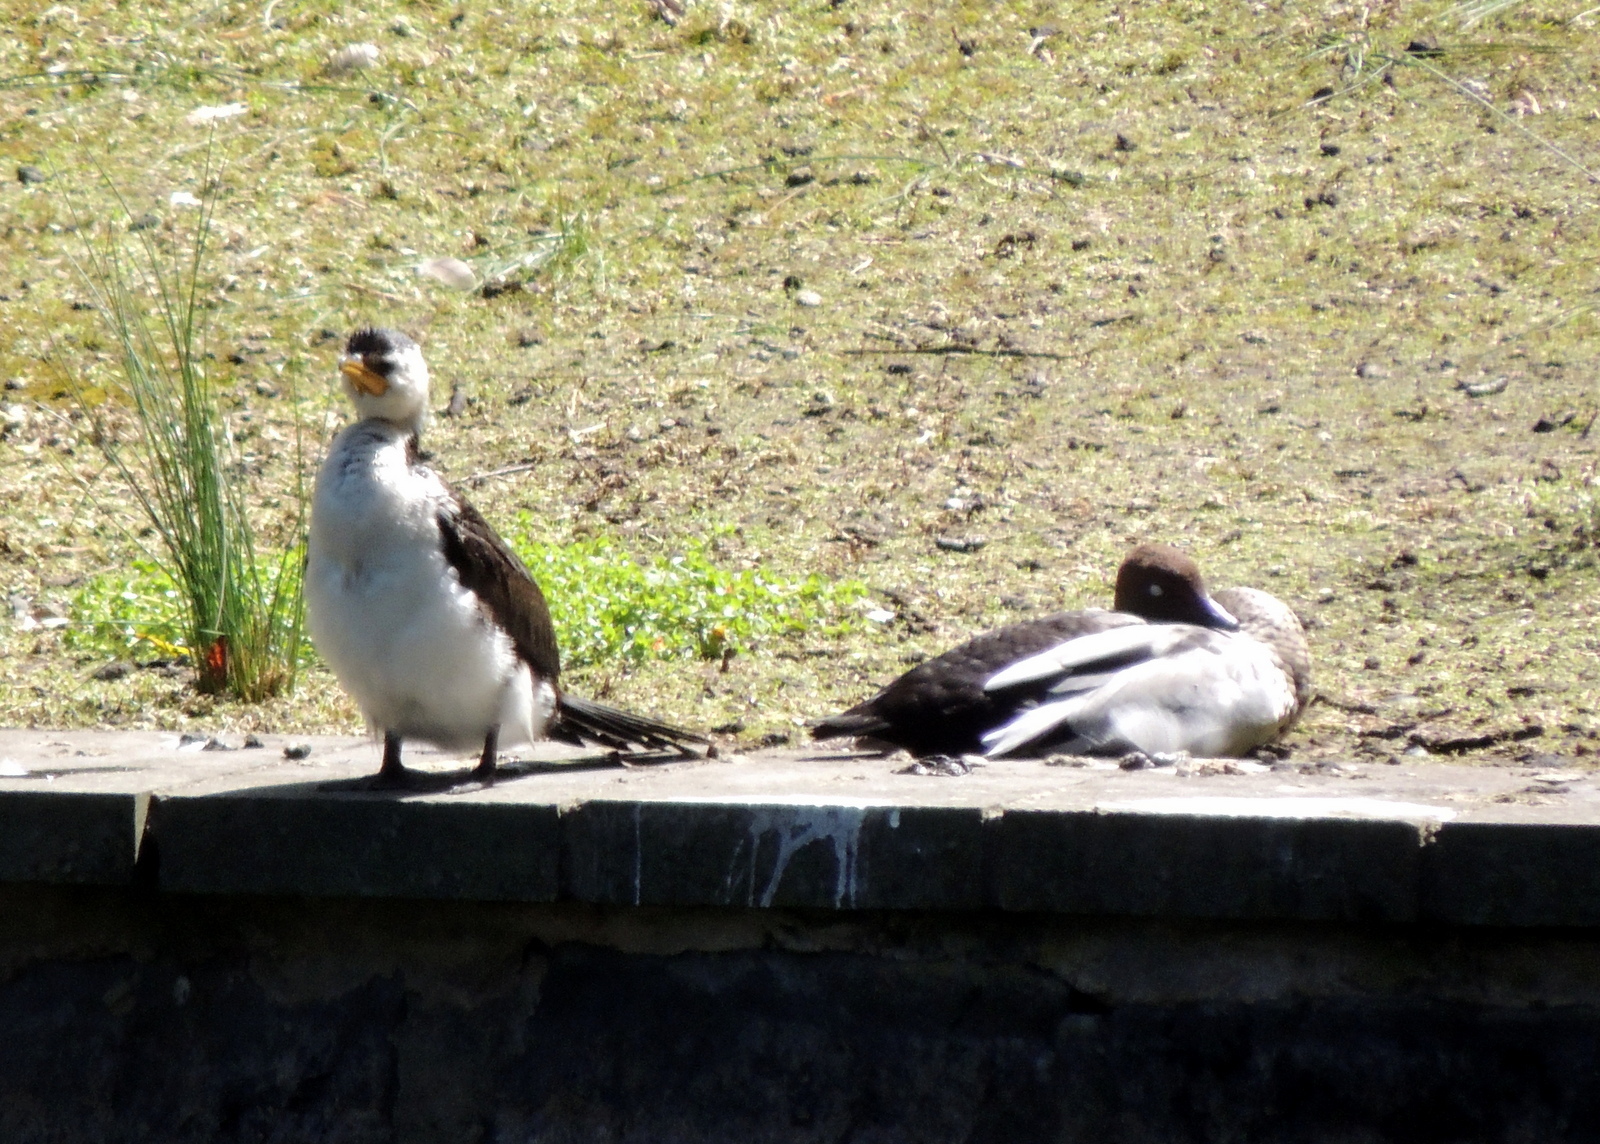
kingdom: Animalia
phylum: Chordata
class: Aves
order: Anseriformes
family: Anatidae
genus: Chenonetta
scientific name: Chenonetta jubata
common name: Maned duck
